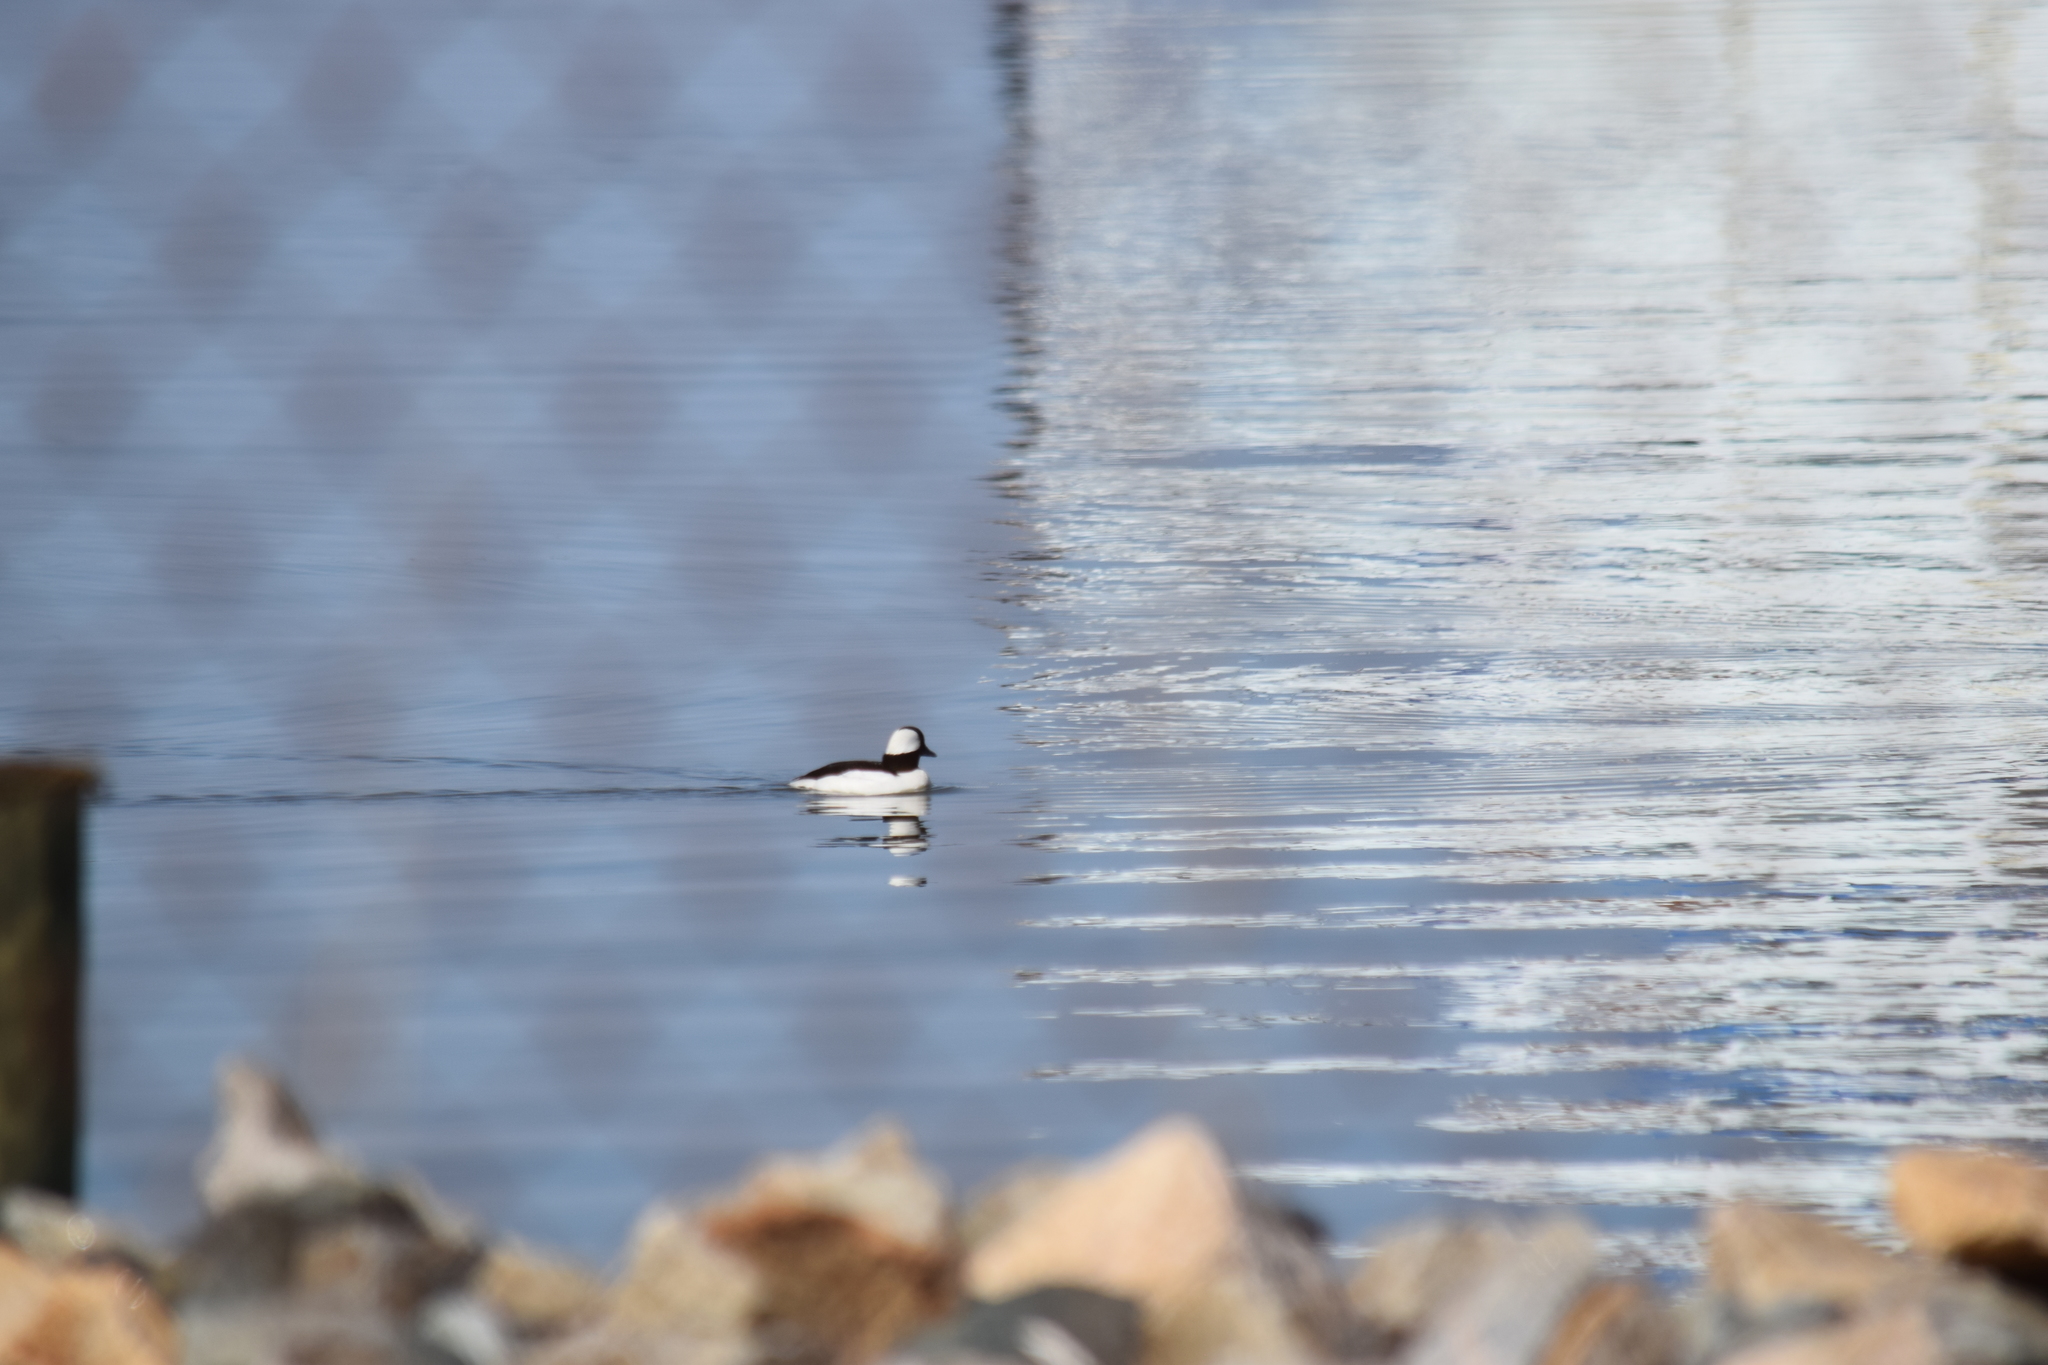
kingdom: Animalia
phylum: Chordata
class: Aves
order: Anseriformes
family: Anatidae
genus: Bucephala
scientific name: Bucephala albeola
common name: Bufflehead
